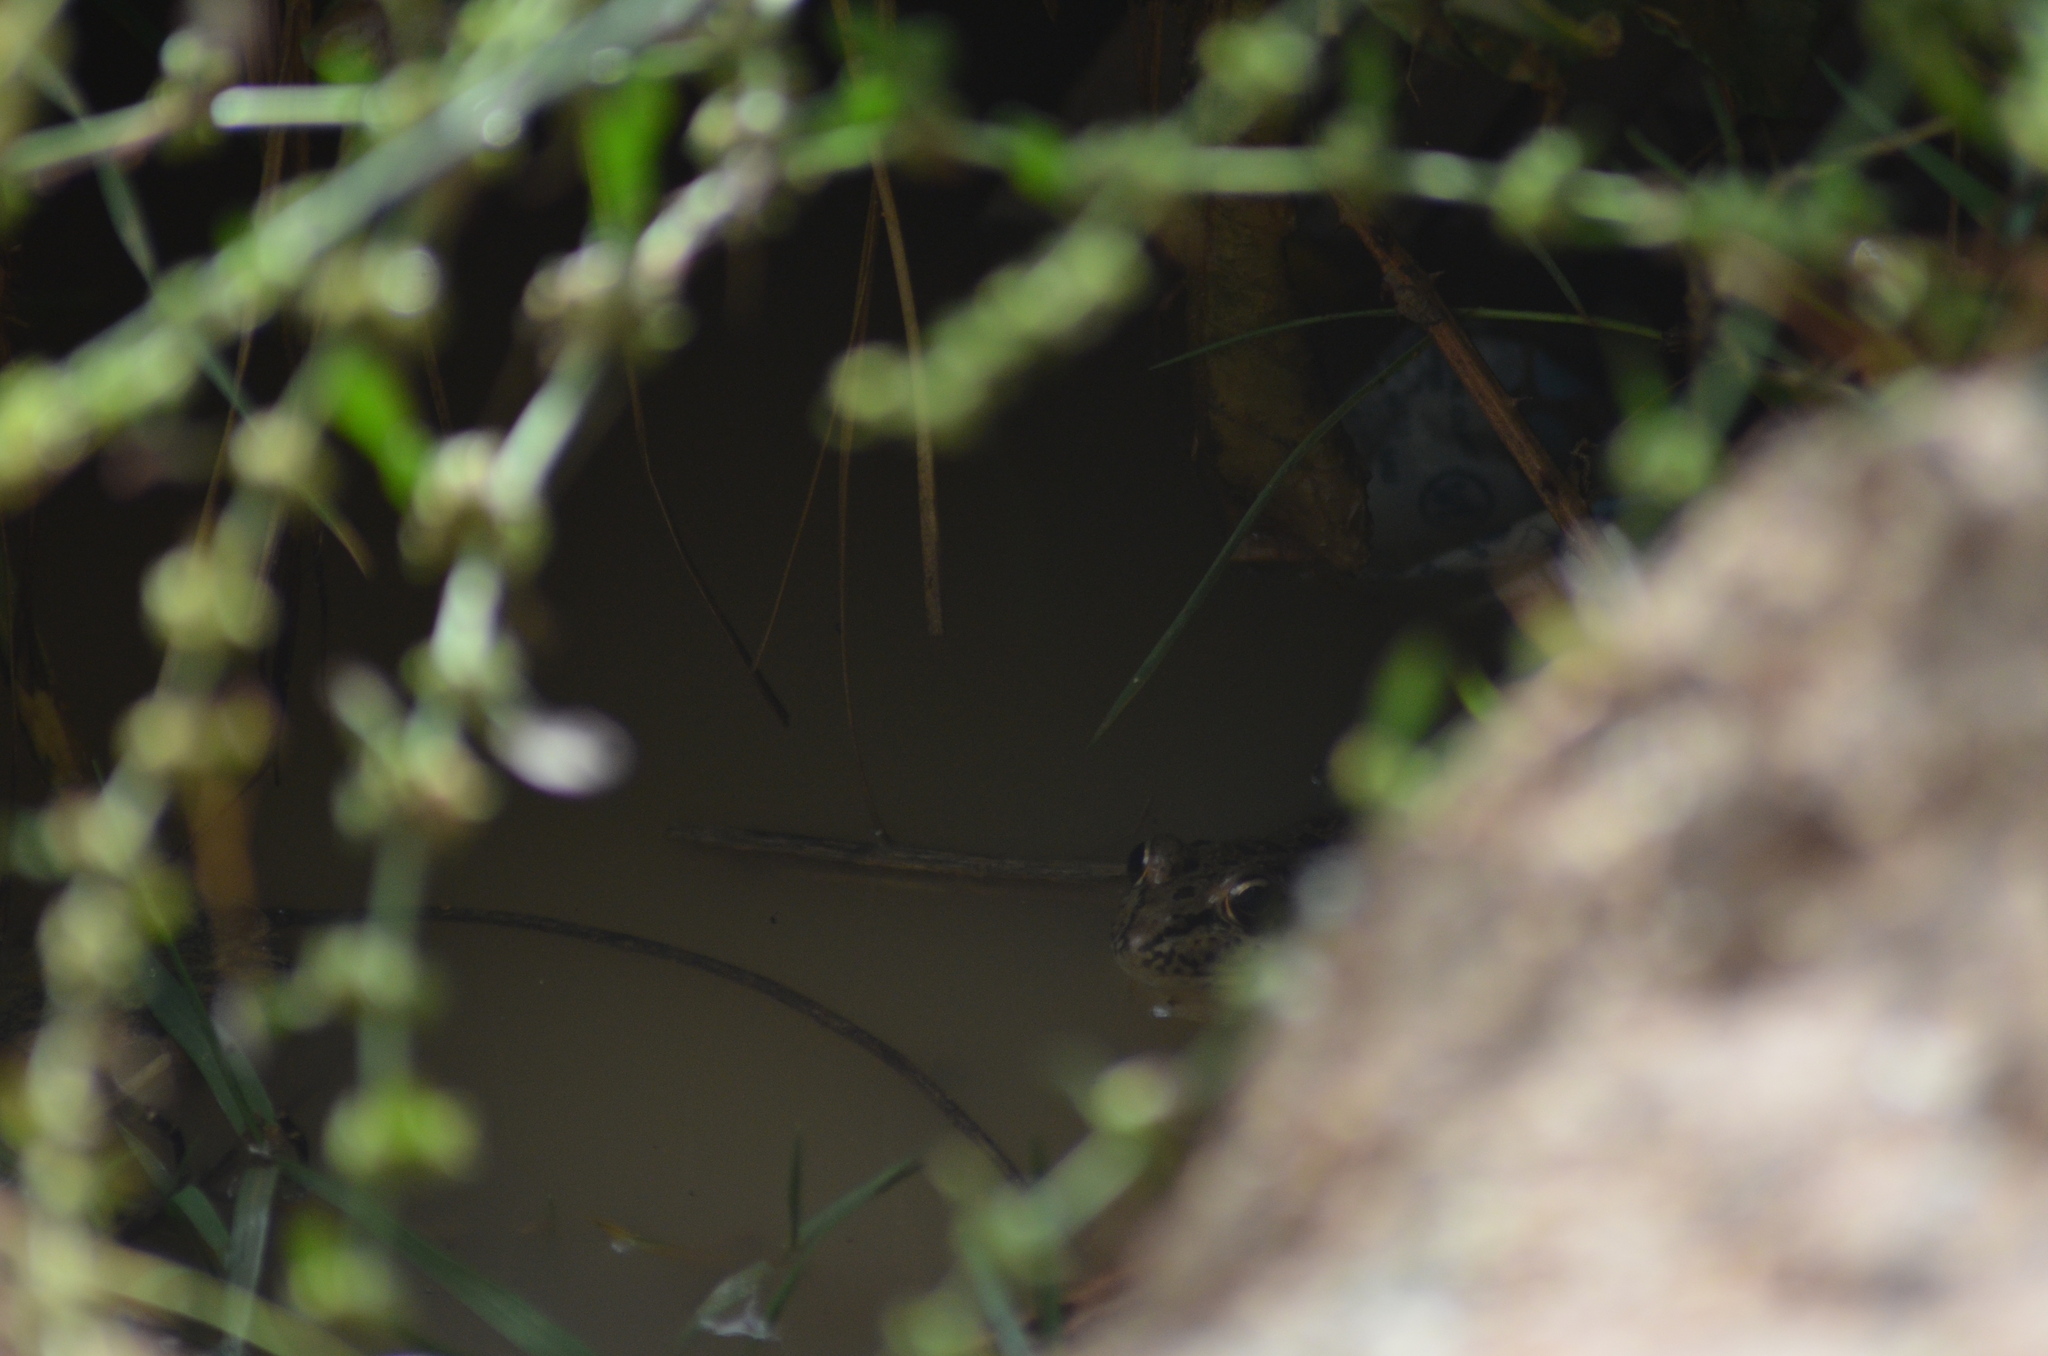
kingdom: Animalia
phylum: Chordata
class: Amphibia
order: Anura
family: Ranidae
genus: Pelophylax
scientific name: Pelophylax
